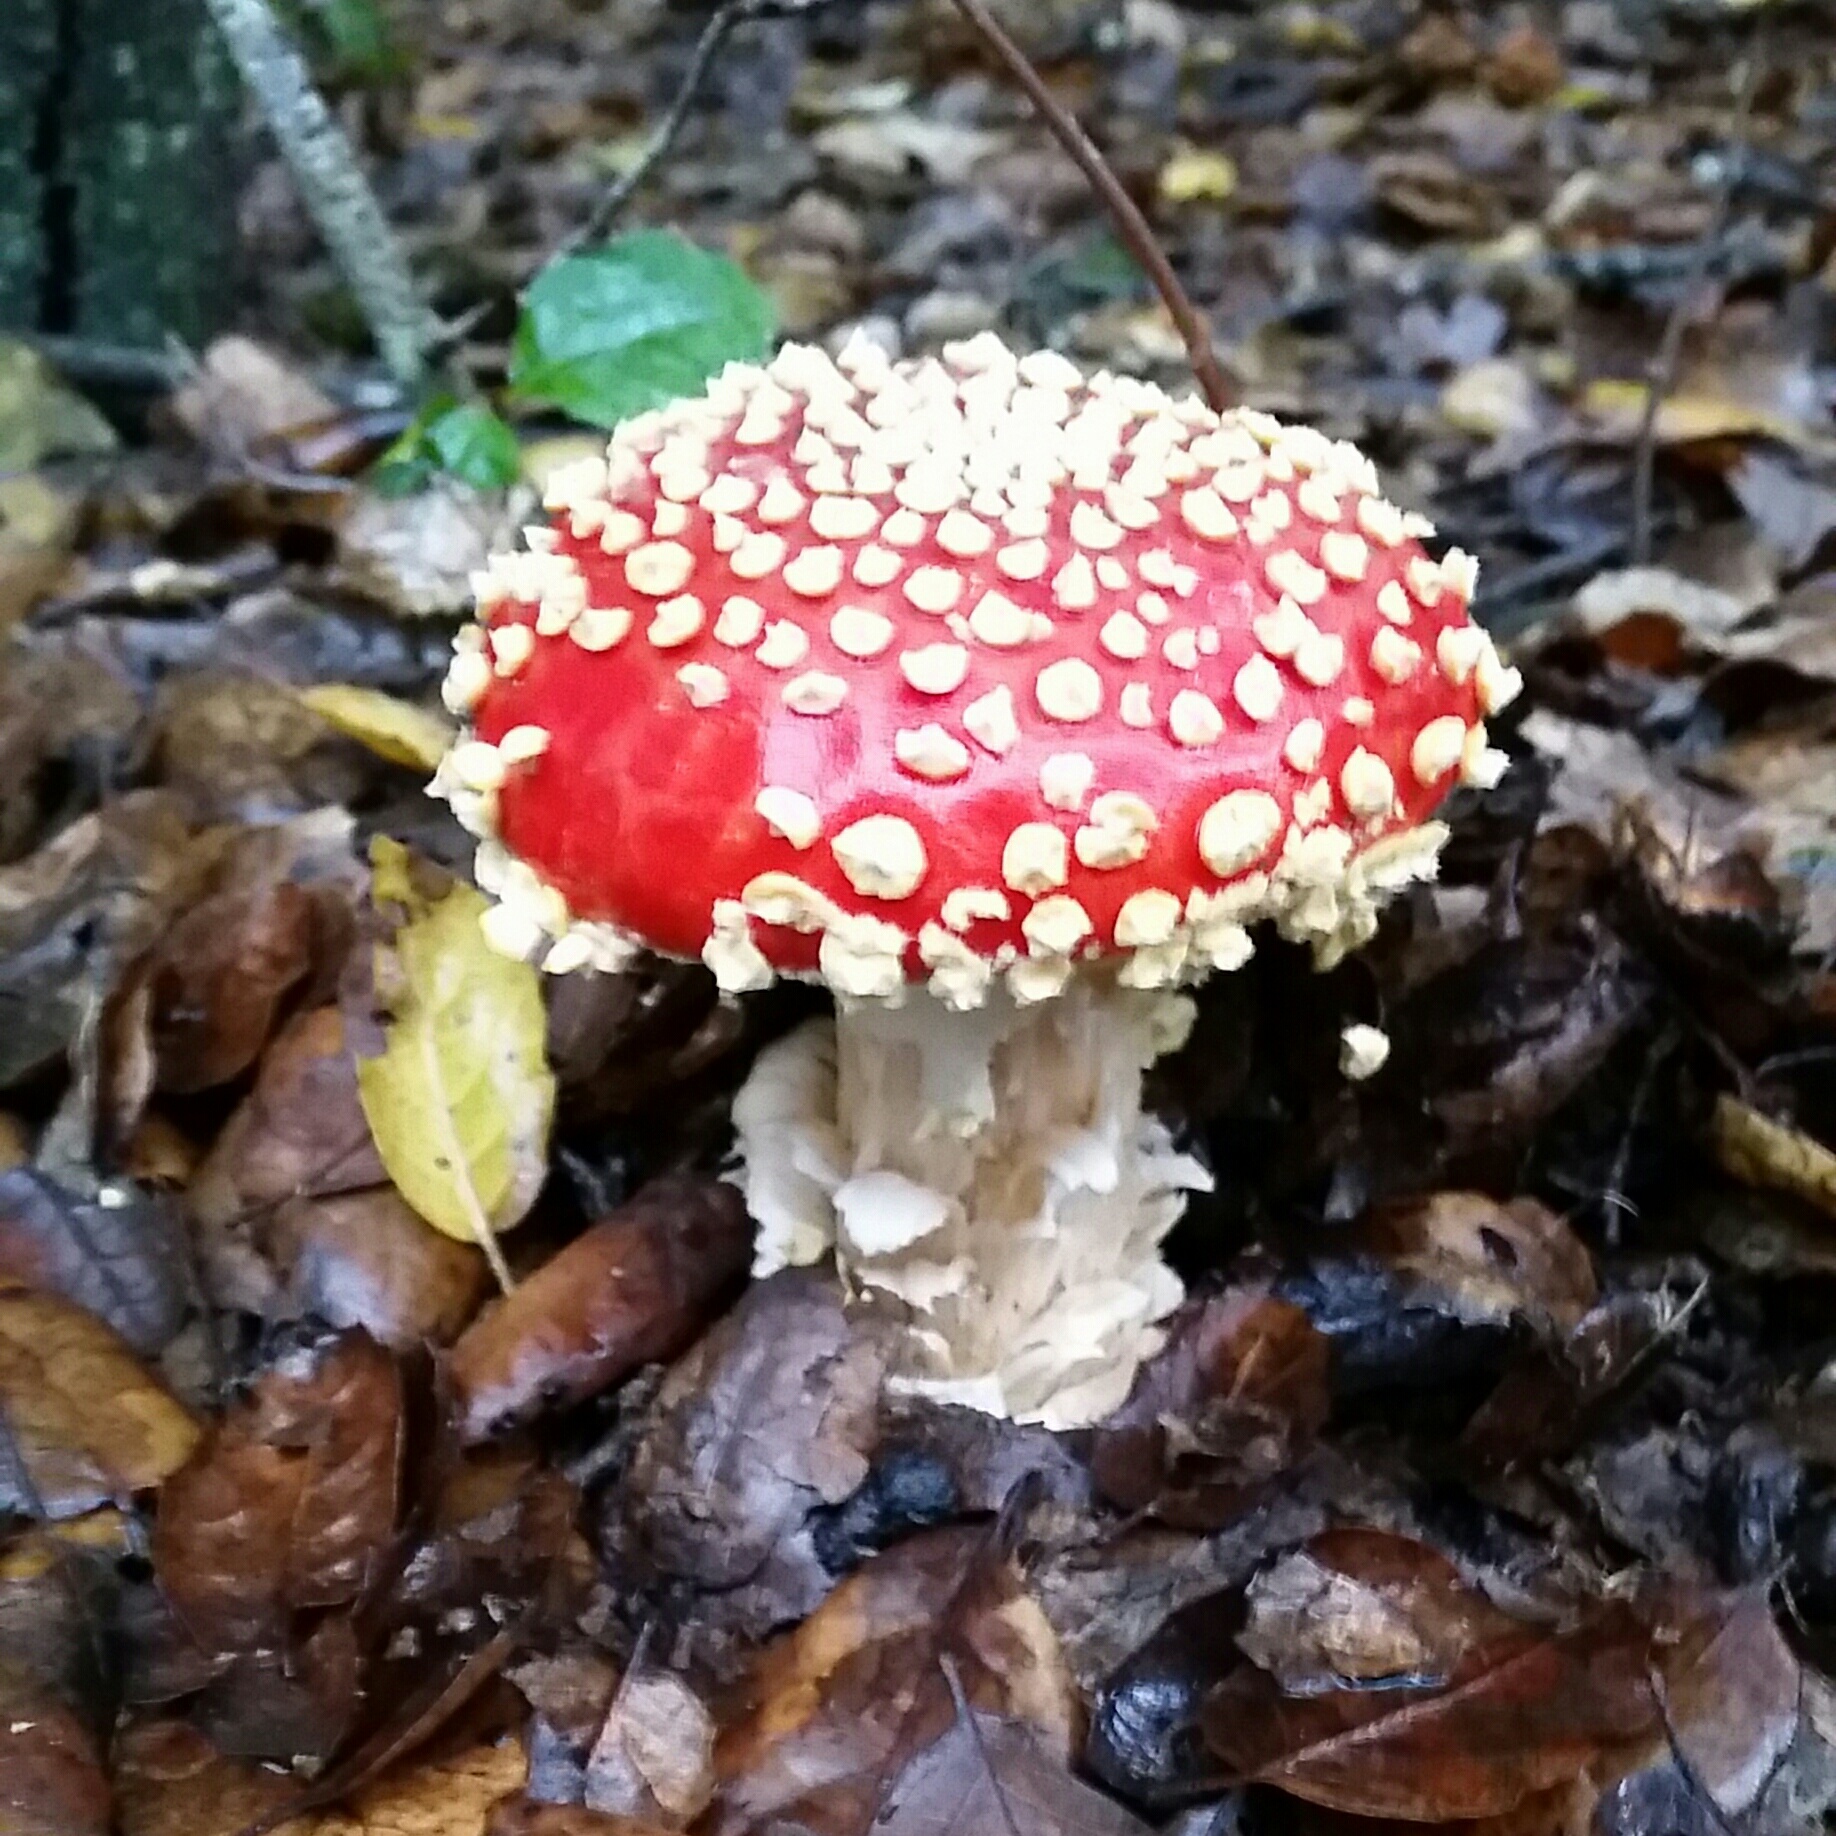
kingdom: Fungi
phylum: Basidiomycota
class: Agaricomycetes
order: Agaricales
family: Amanitaceae
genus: Amanita
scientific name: Amanita muscaria
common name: Fly agaric
